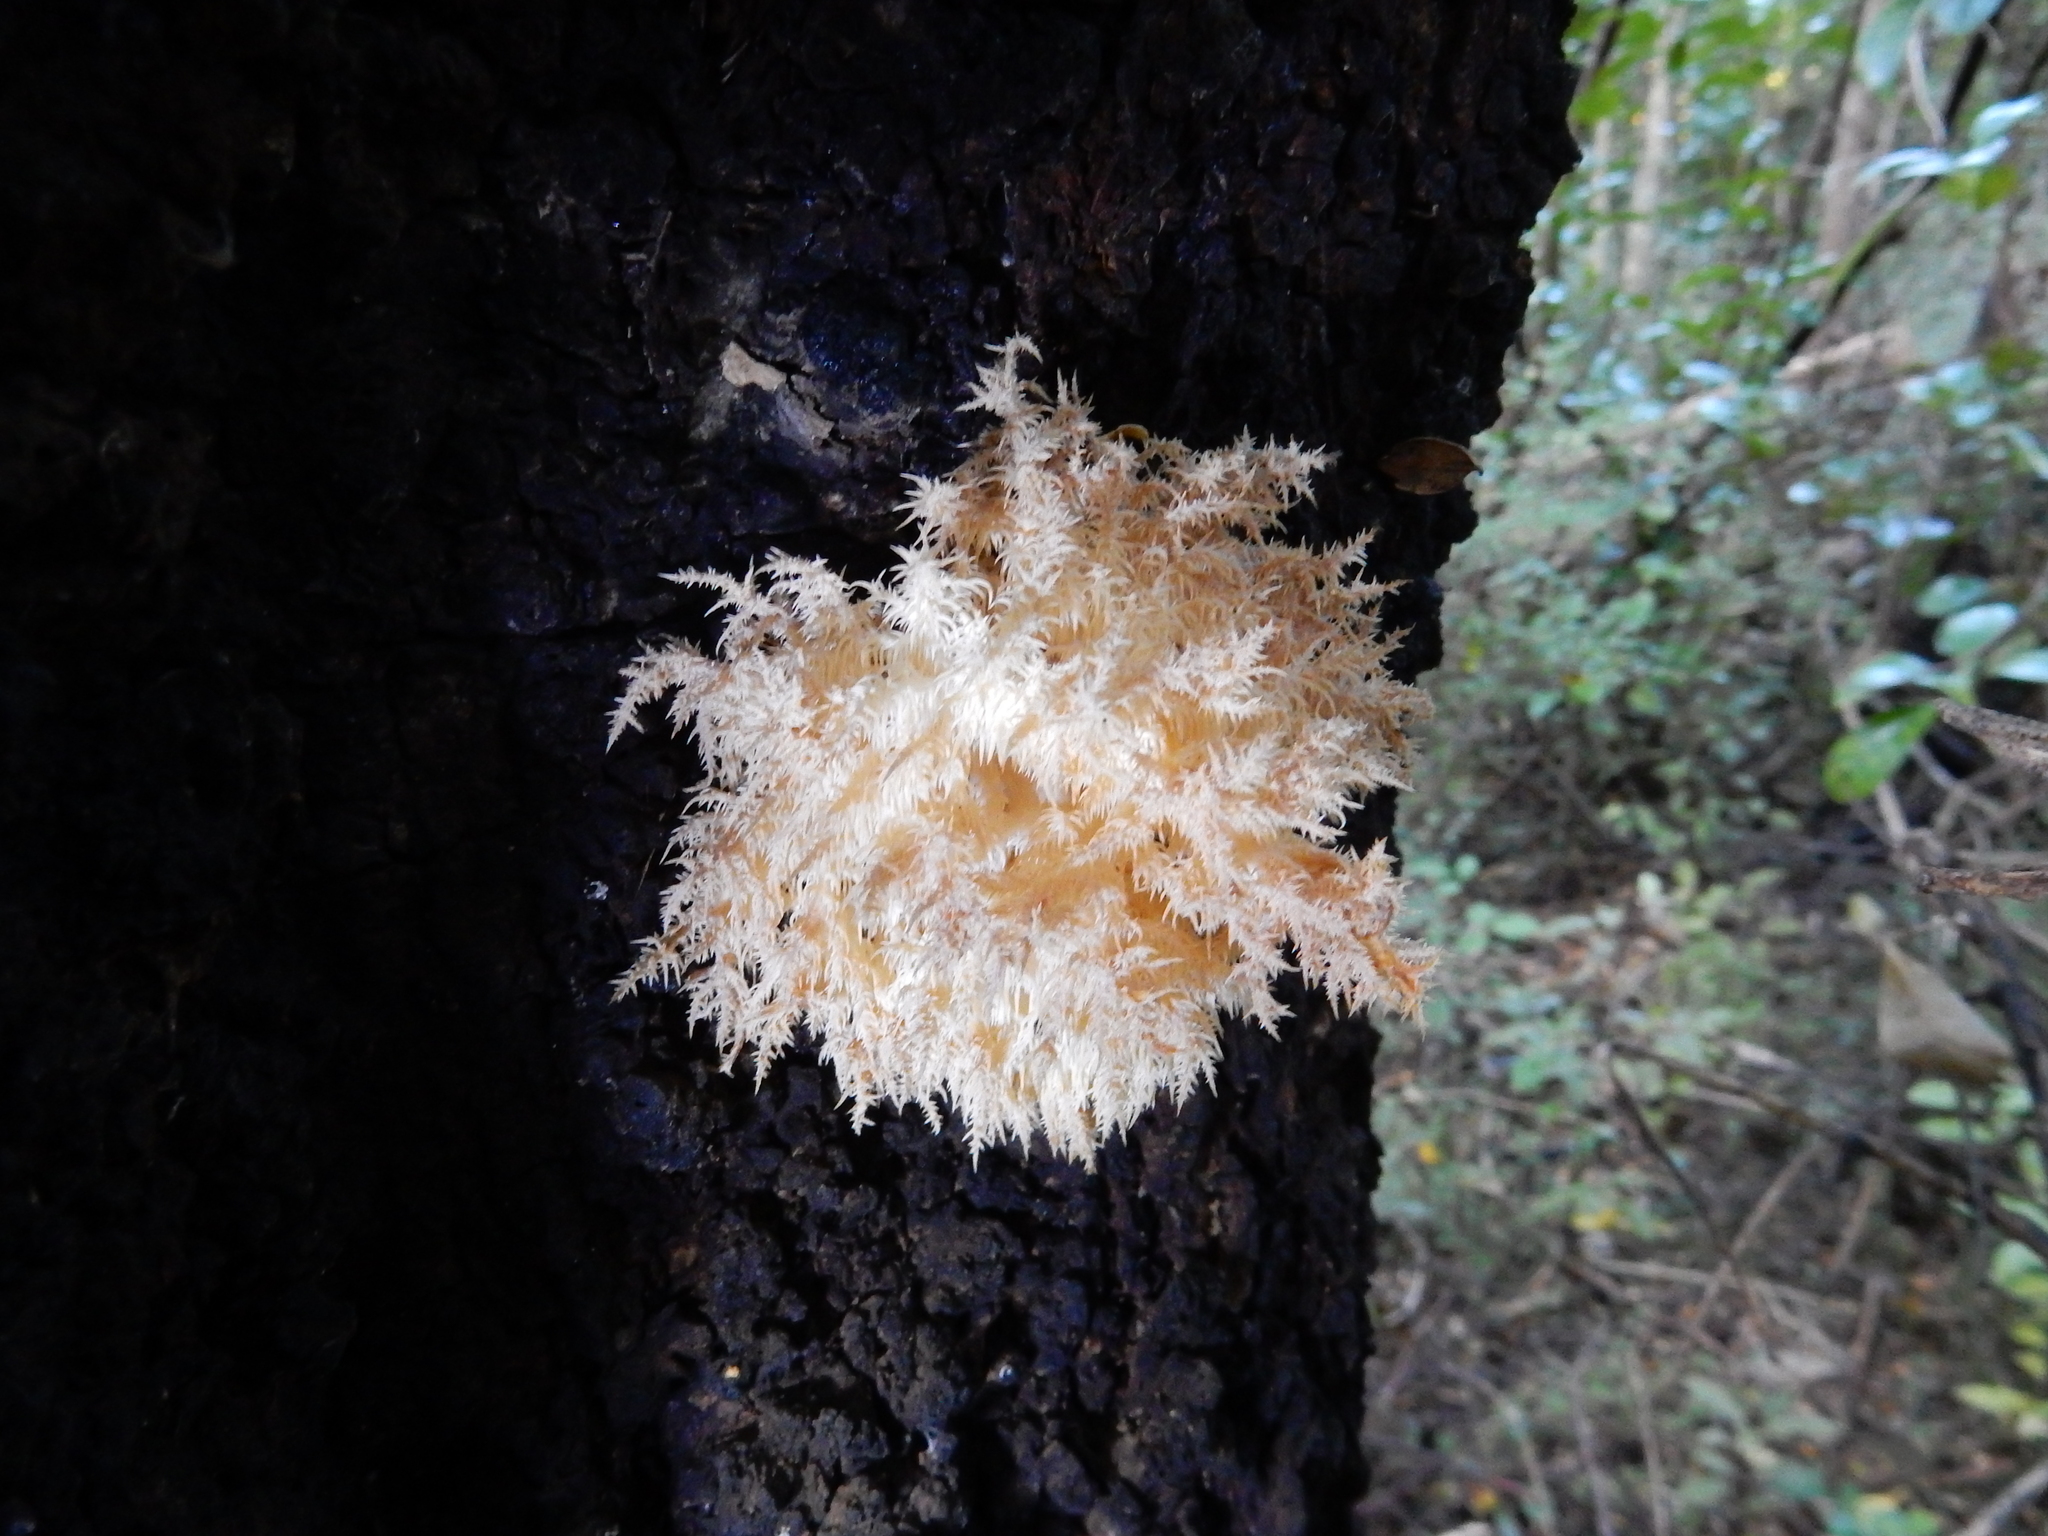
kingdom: Fungi
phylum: Basidiomycota
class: Agaricomycetes
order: Russulales
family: Hericiaceae
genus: Hericium
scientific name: Hericium novae-zealandiae
